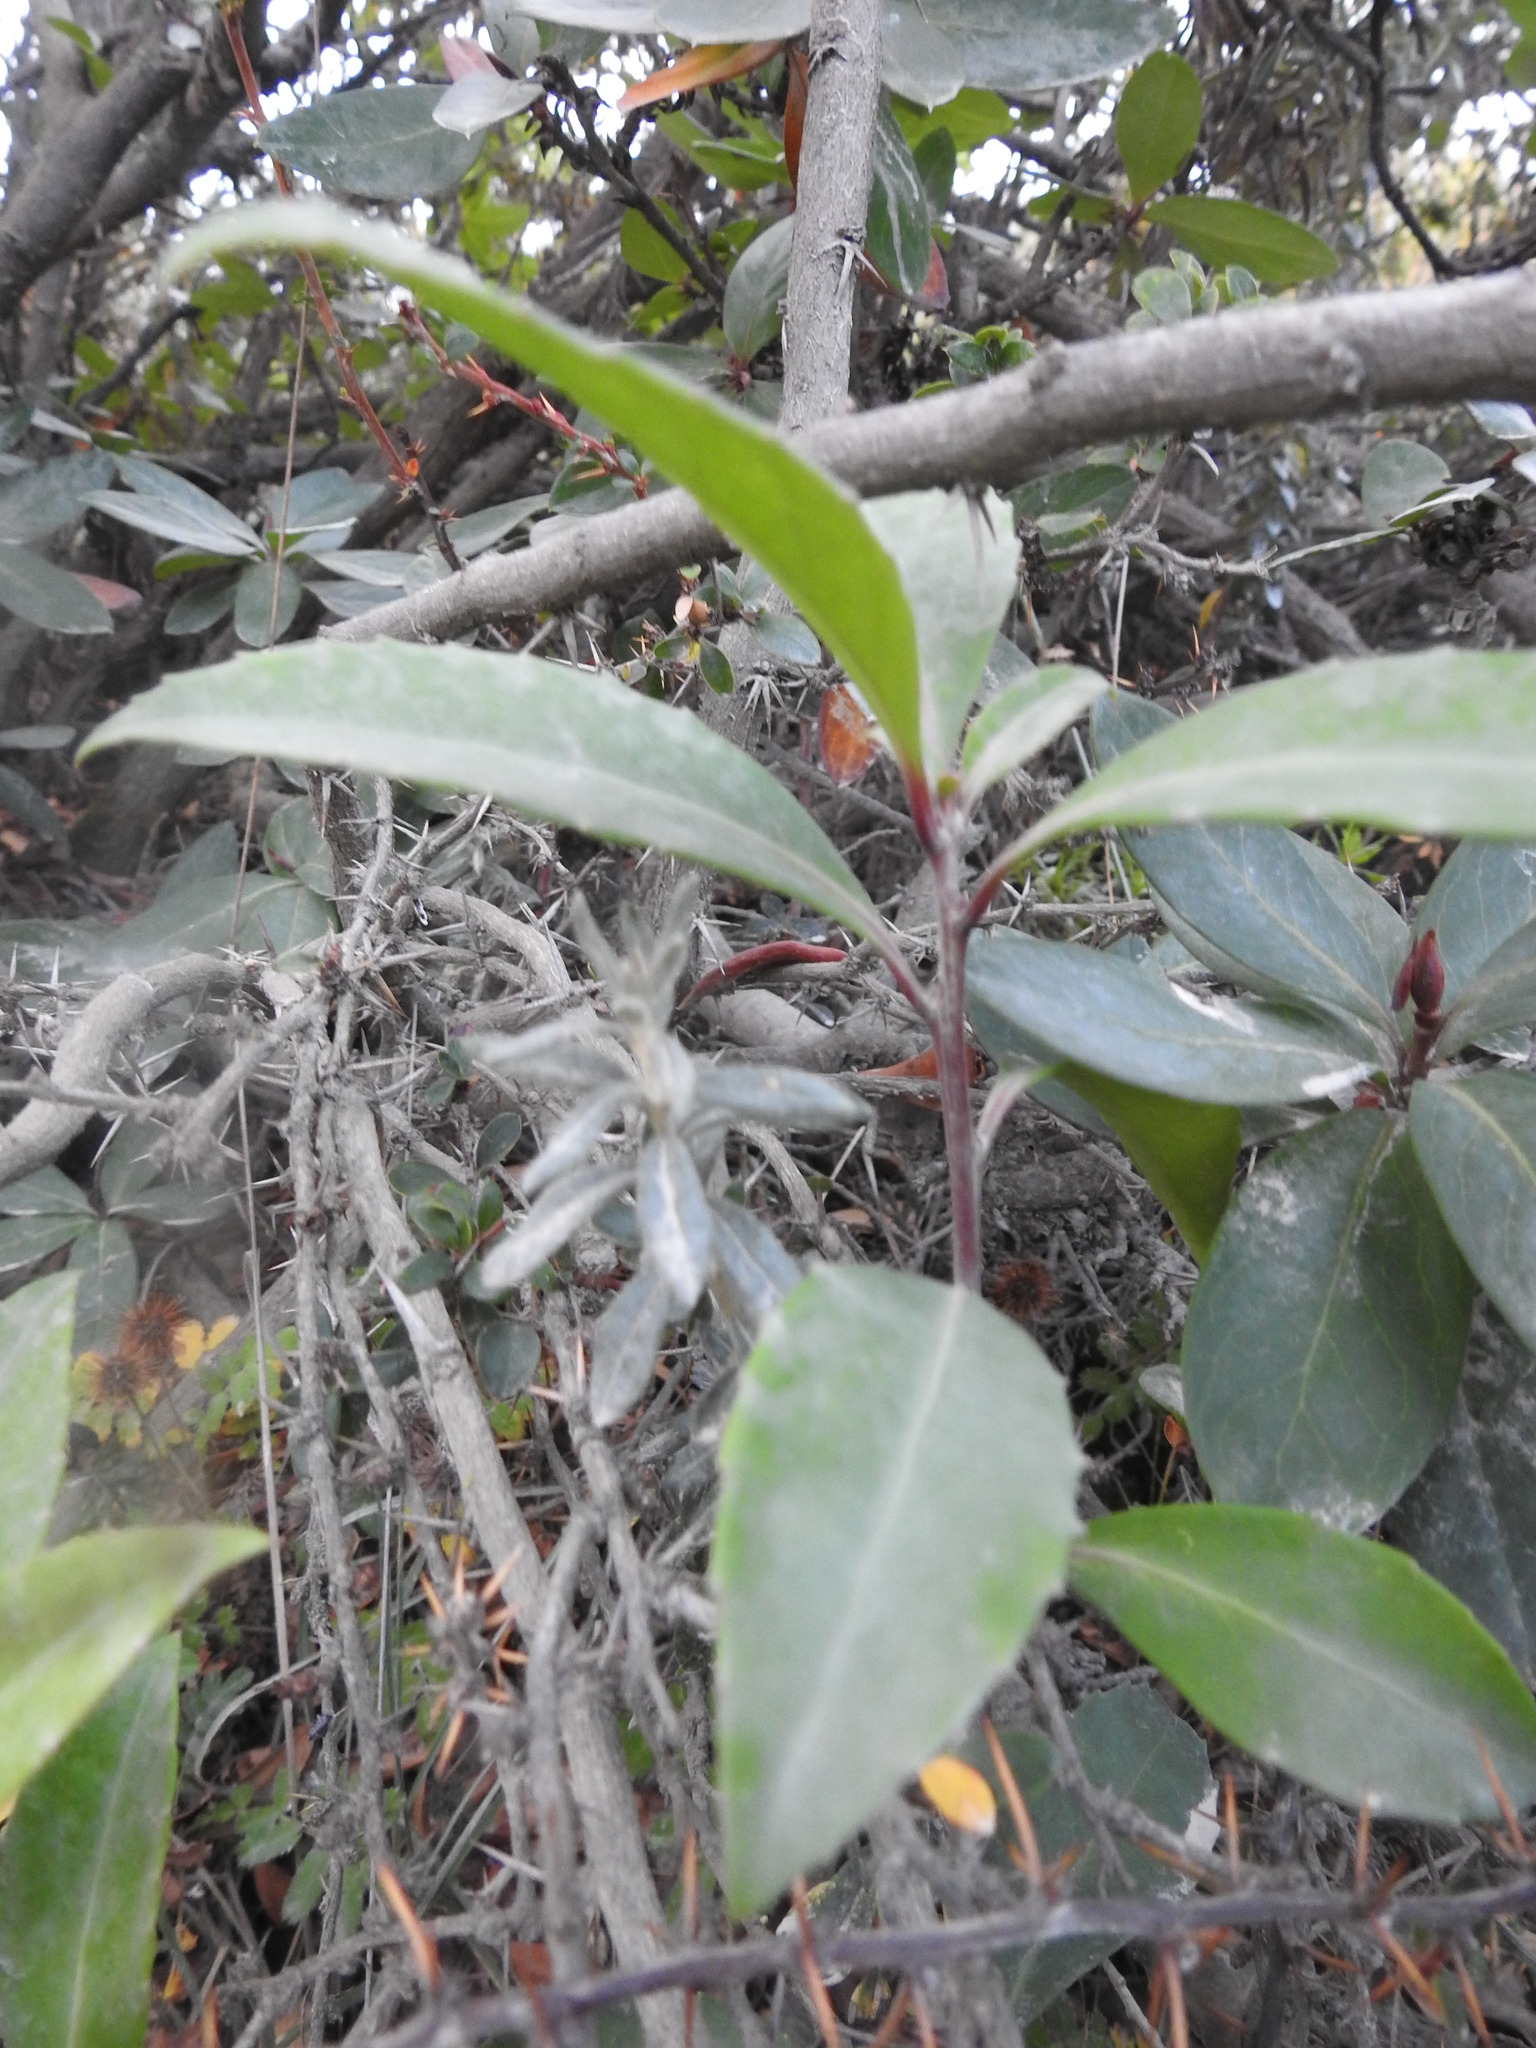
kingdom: Plantae
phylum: Tracheophyta
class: Magnoliopsida
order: Celastrales
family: Celastraceae
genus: Maytenus
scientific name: Maytenus magellanica
